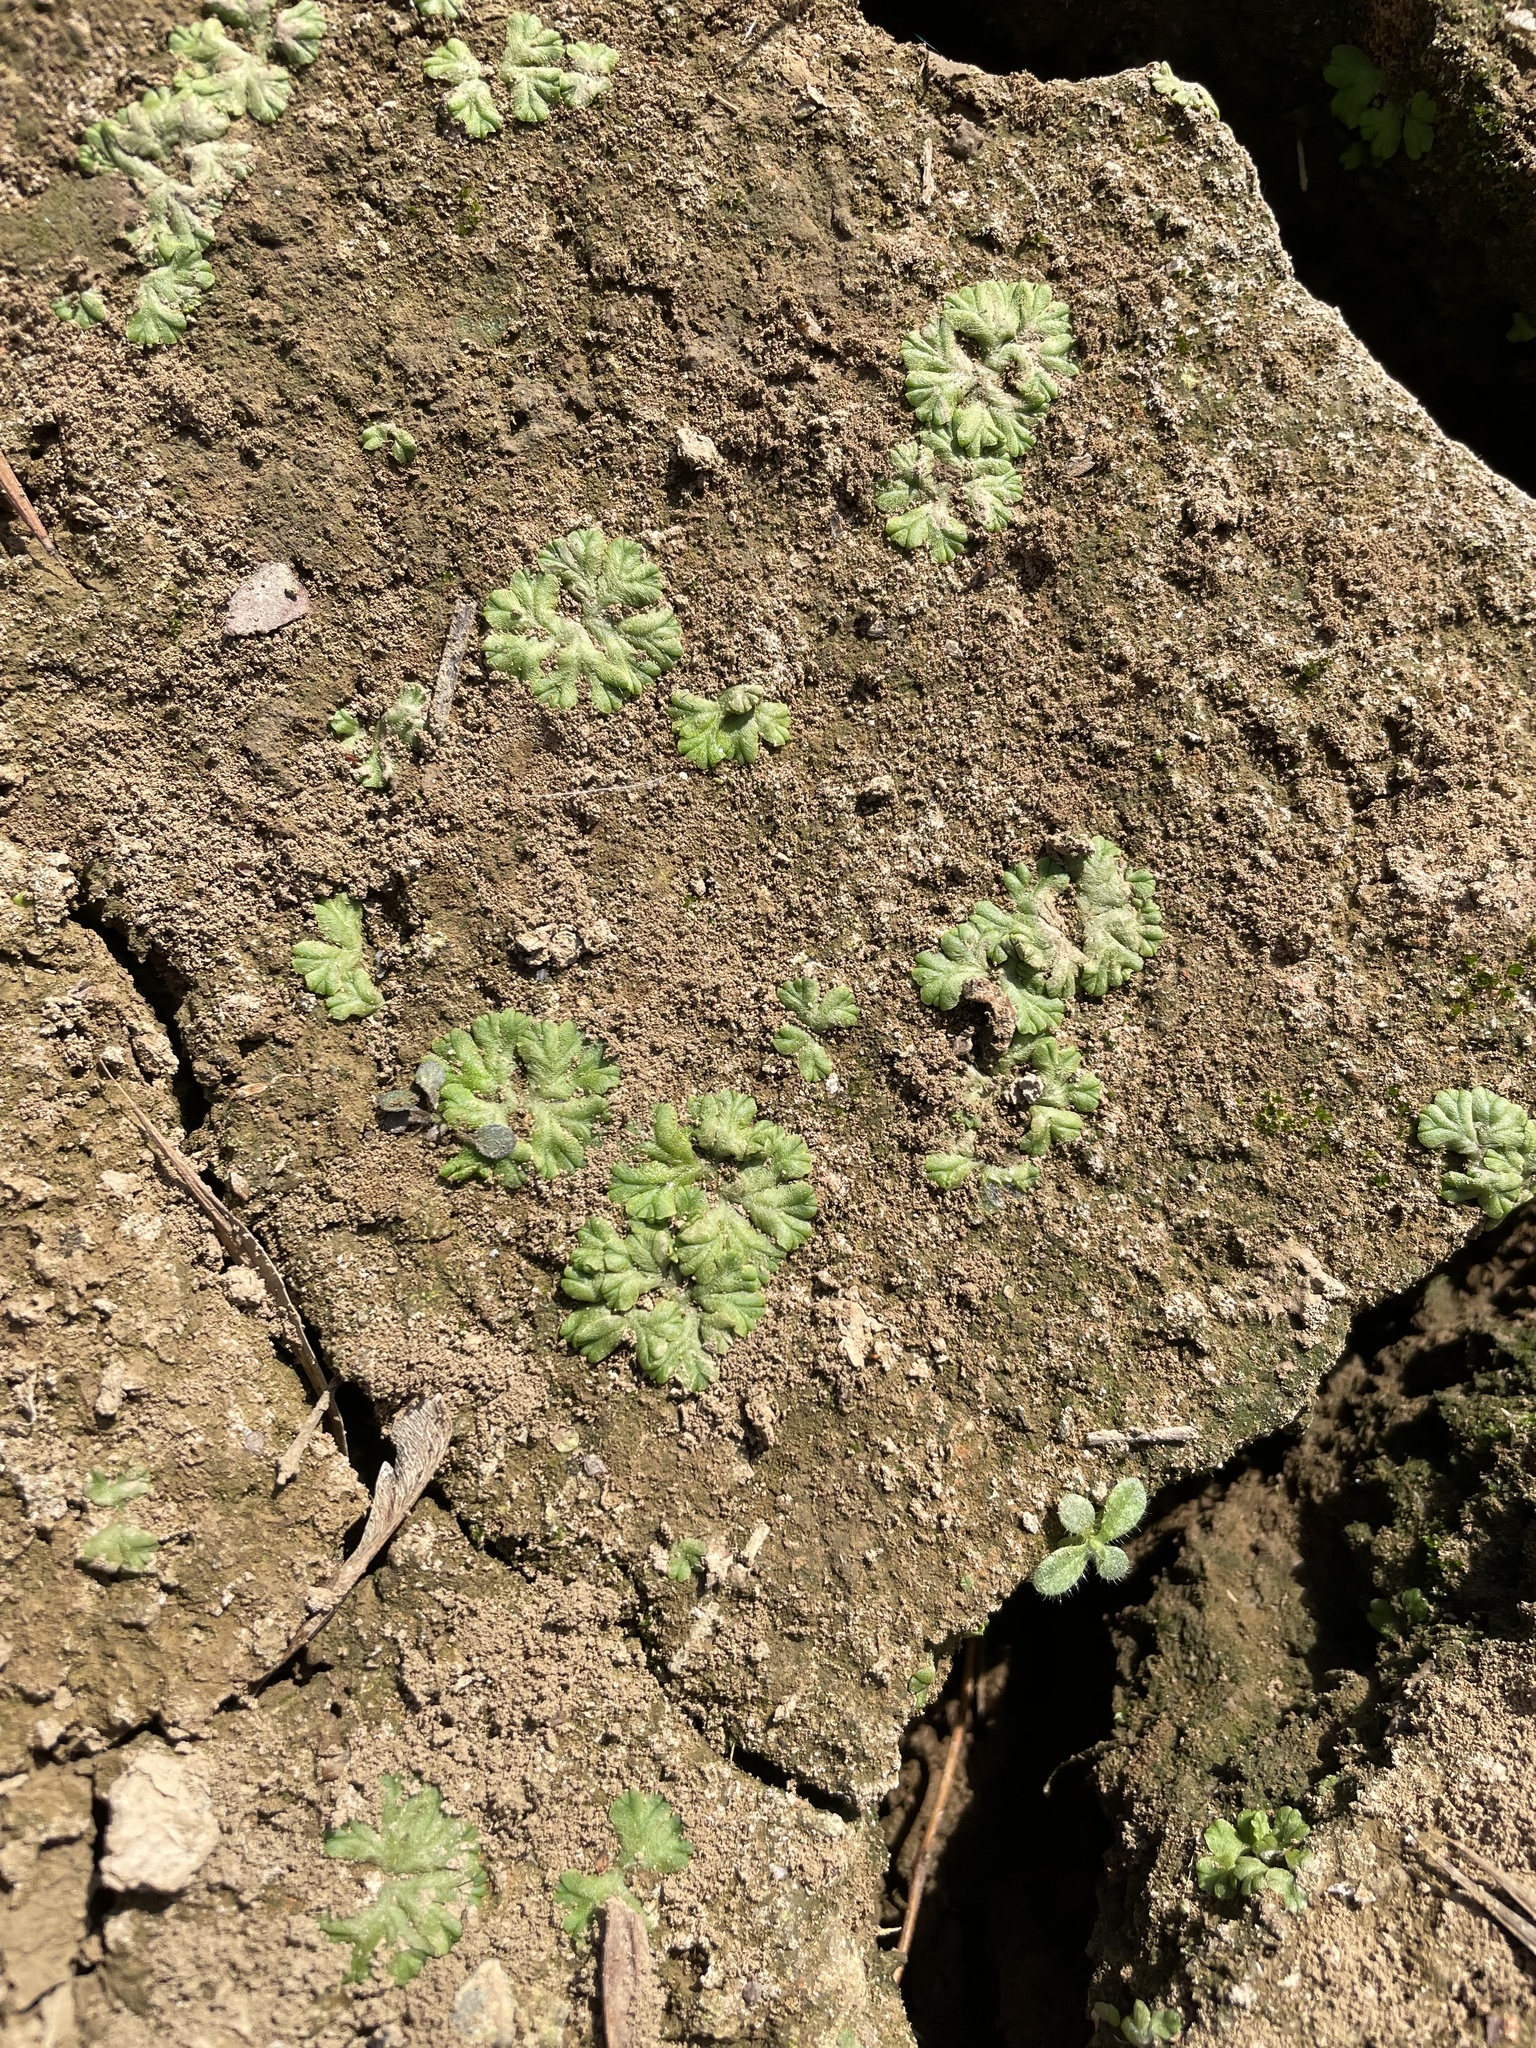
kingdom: Plantae
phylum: Marchantiophyta
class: Marchantiopsida
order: Marchantiales
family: Ricciaceae
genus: Ricciocarpos
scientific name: Ricciocarpos natans
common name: Purple-fringed liverwort
